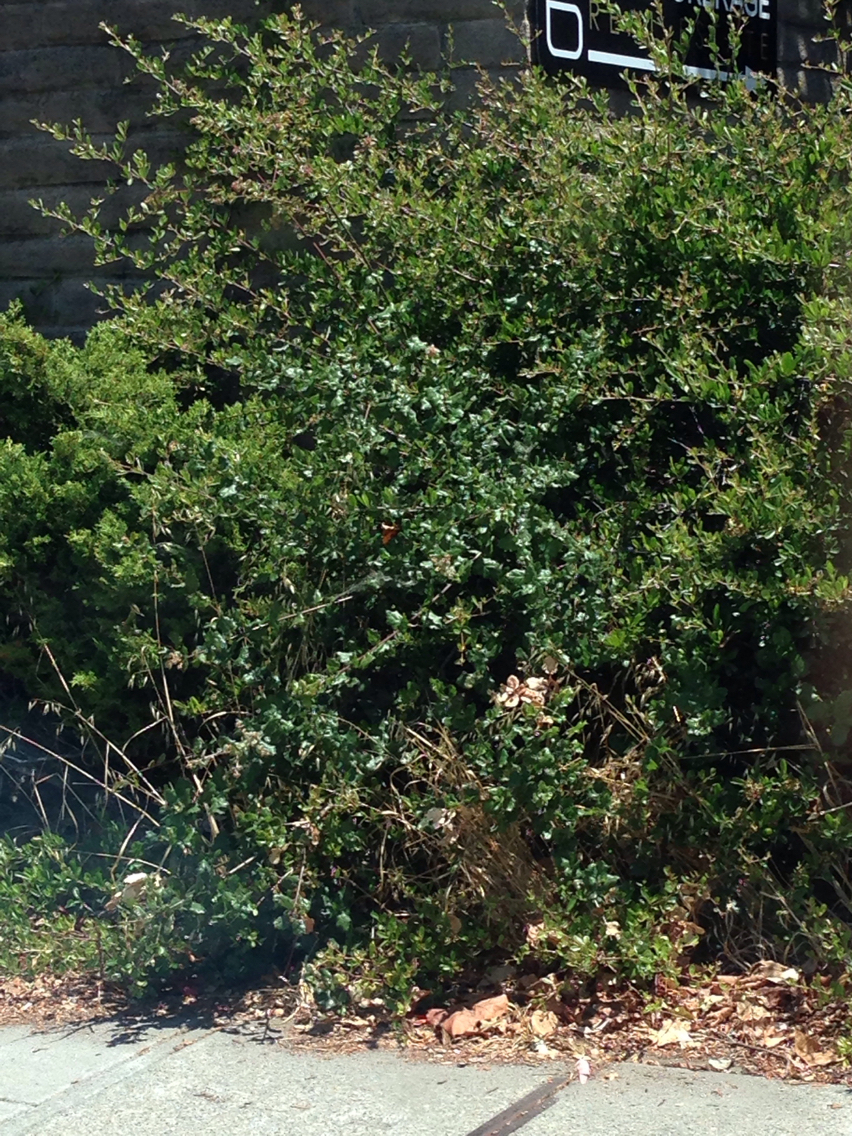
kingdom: Plantae
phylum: Tracheophyta
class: Magnoliopsida
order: Fagales
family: Fagaceae
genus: Quercus
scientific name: Quercus agrifolia
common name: California live oak
